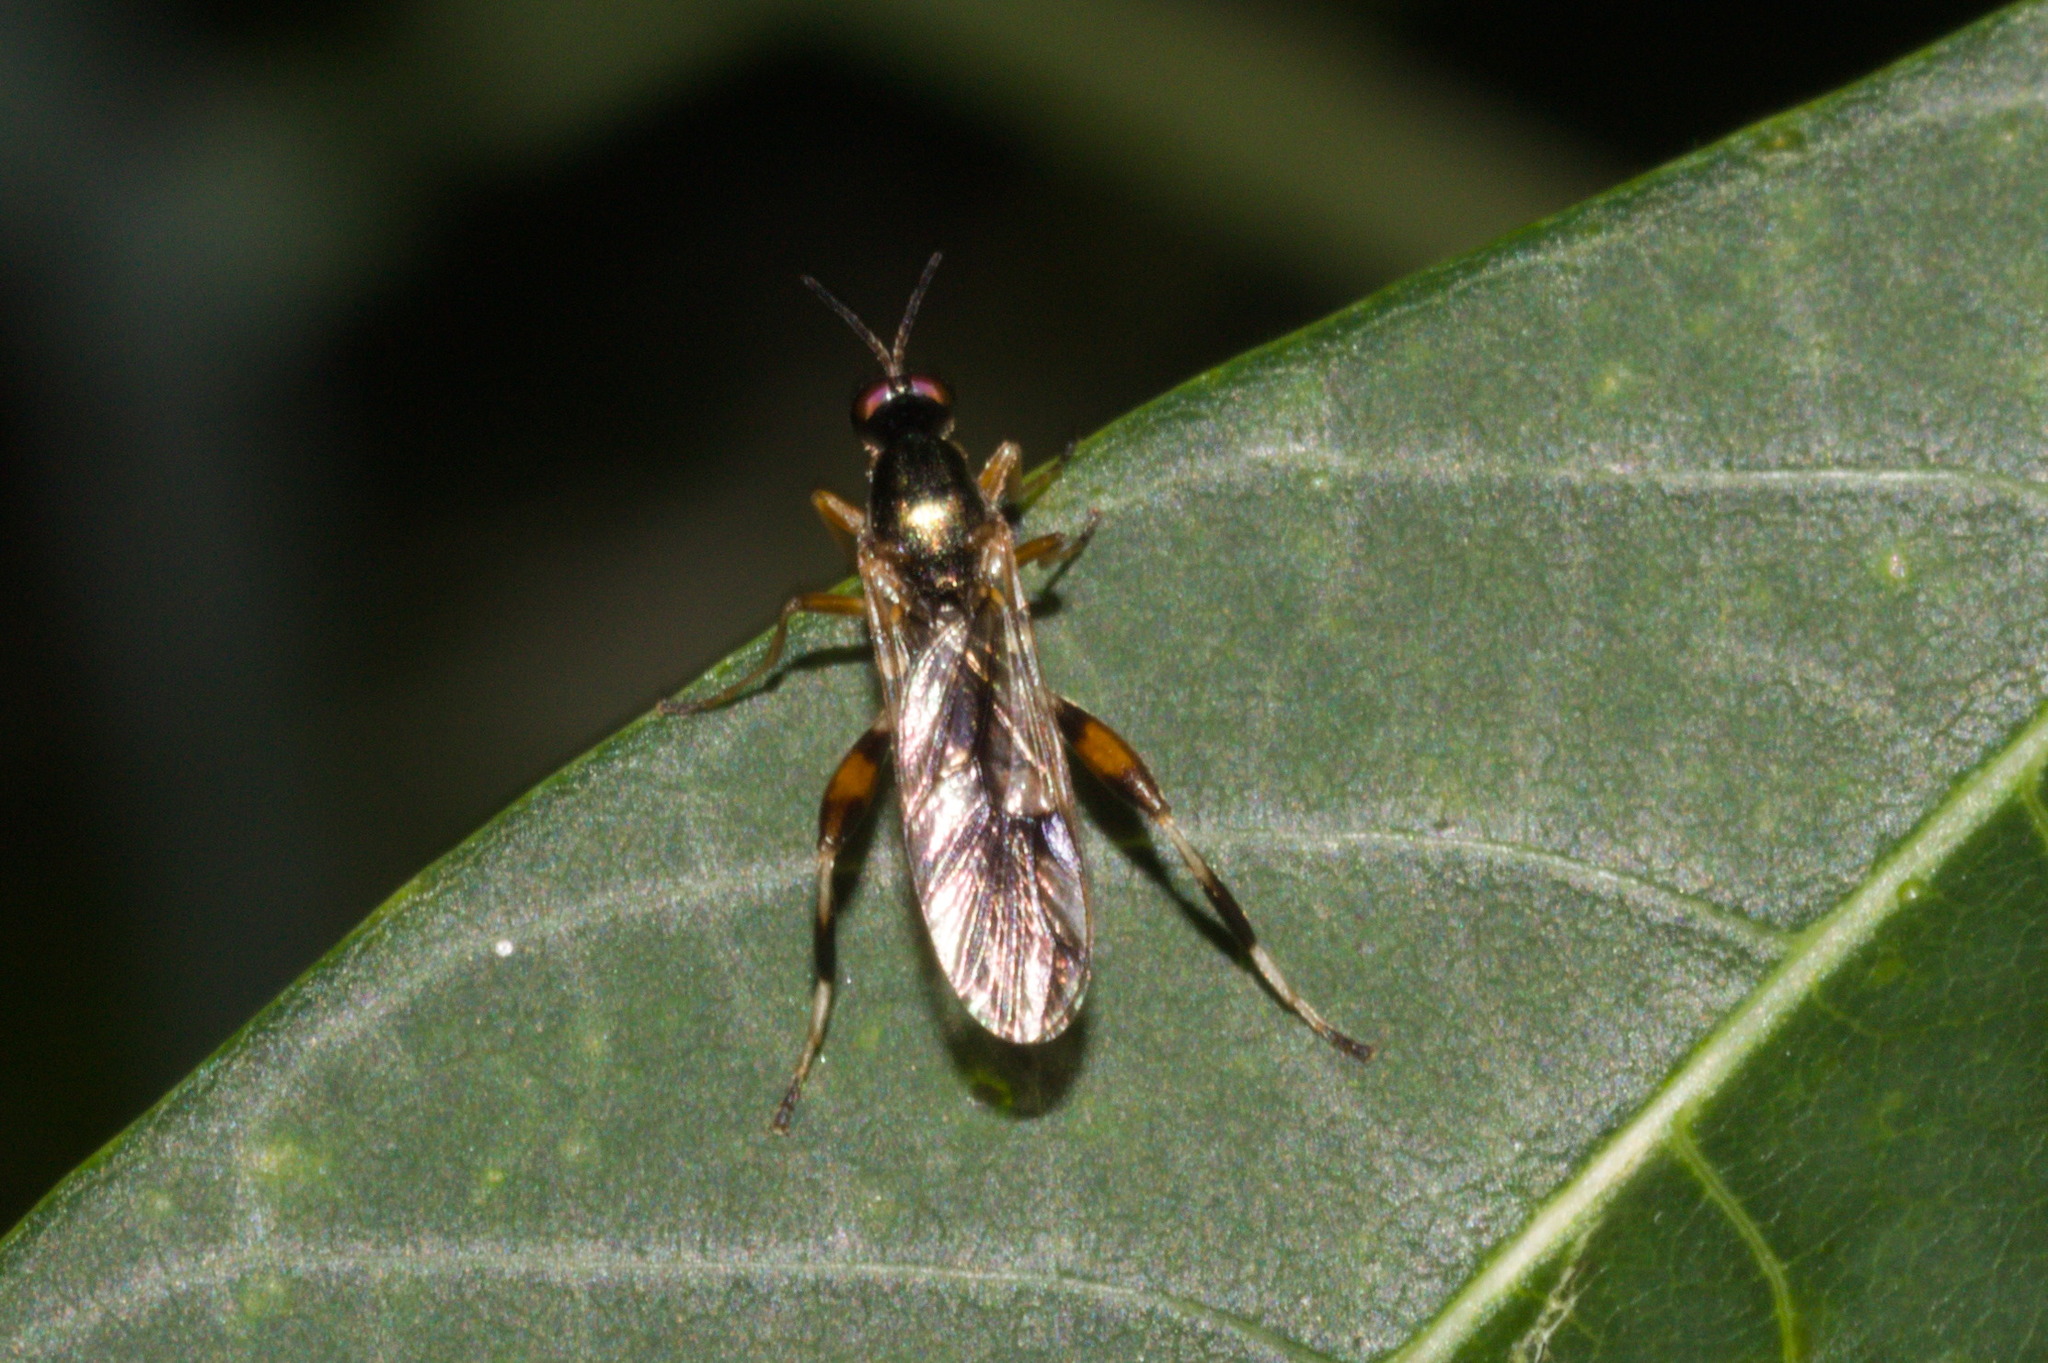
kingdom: Animalia
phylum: Arthropoda
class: Insecta
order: Diptera
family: Stratiomyidae
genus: Neoberis
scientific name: Neoberis brasiliana
